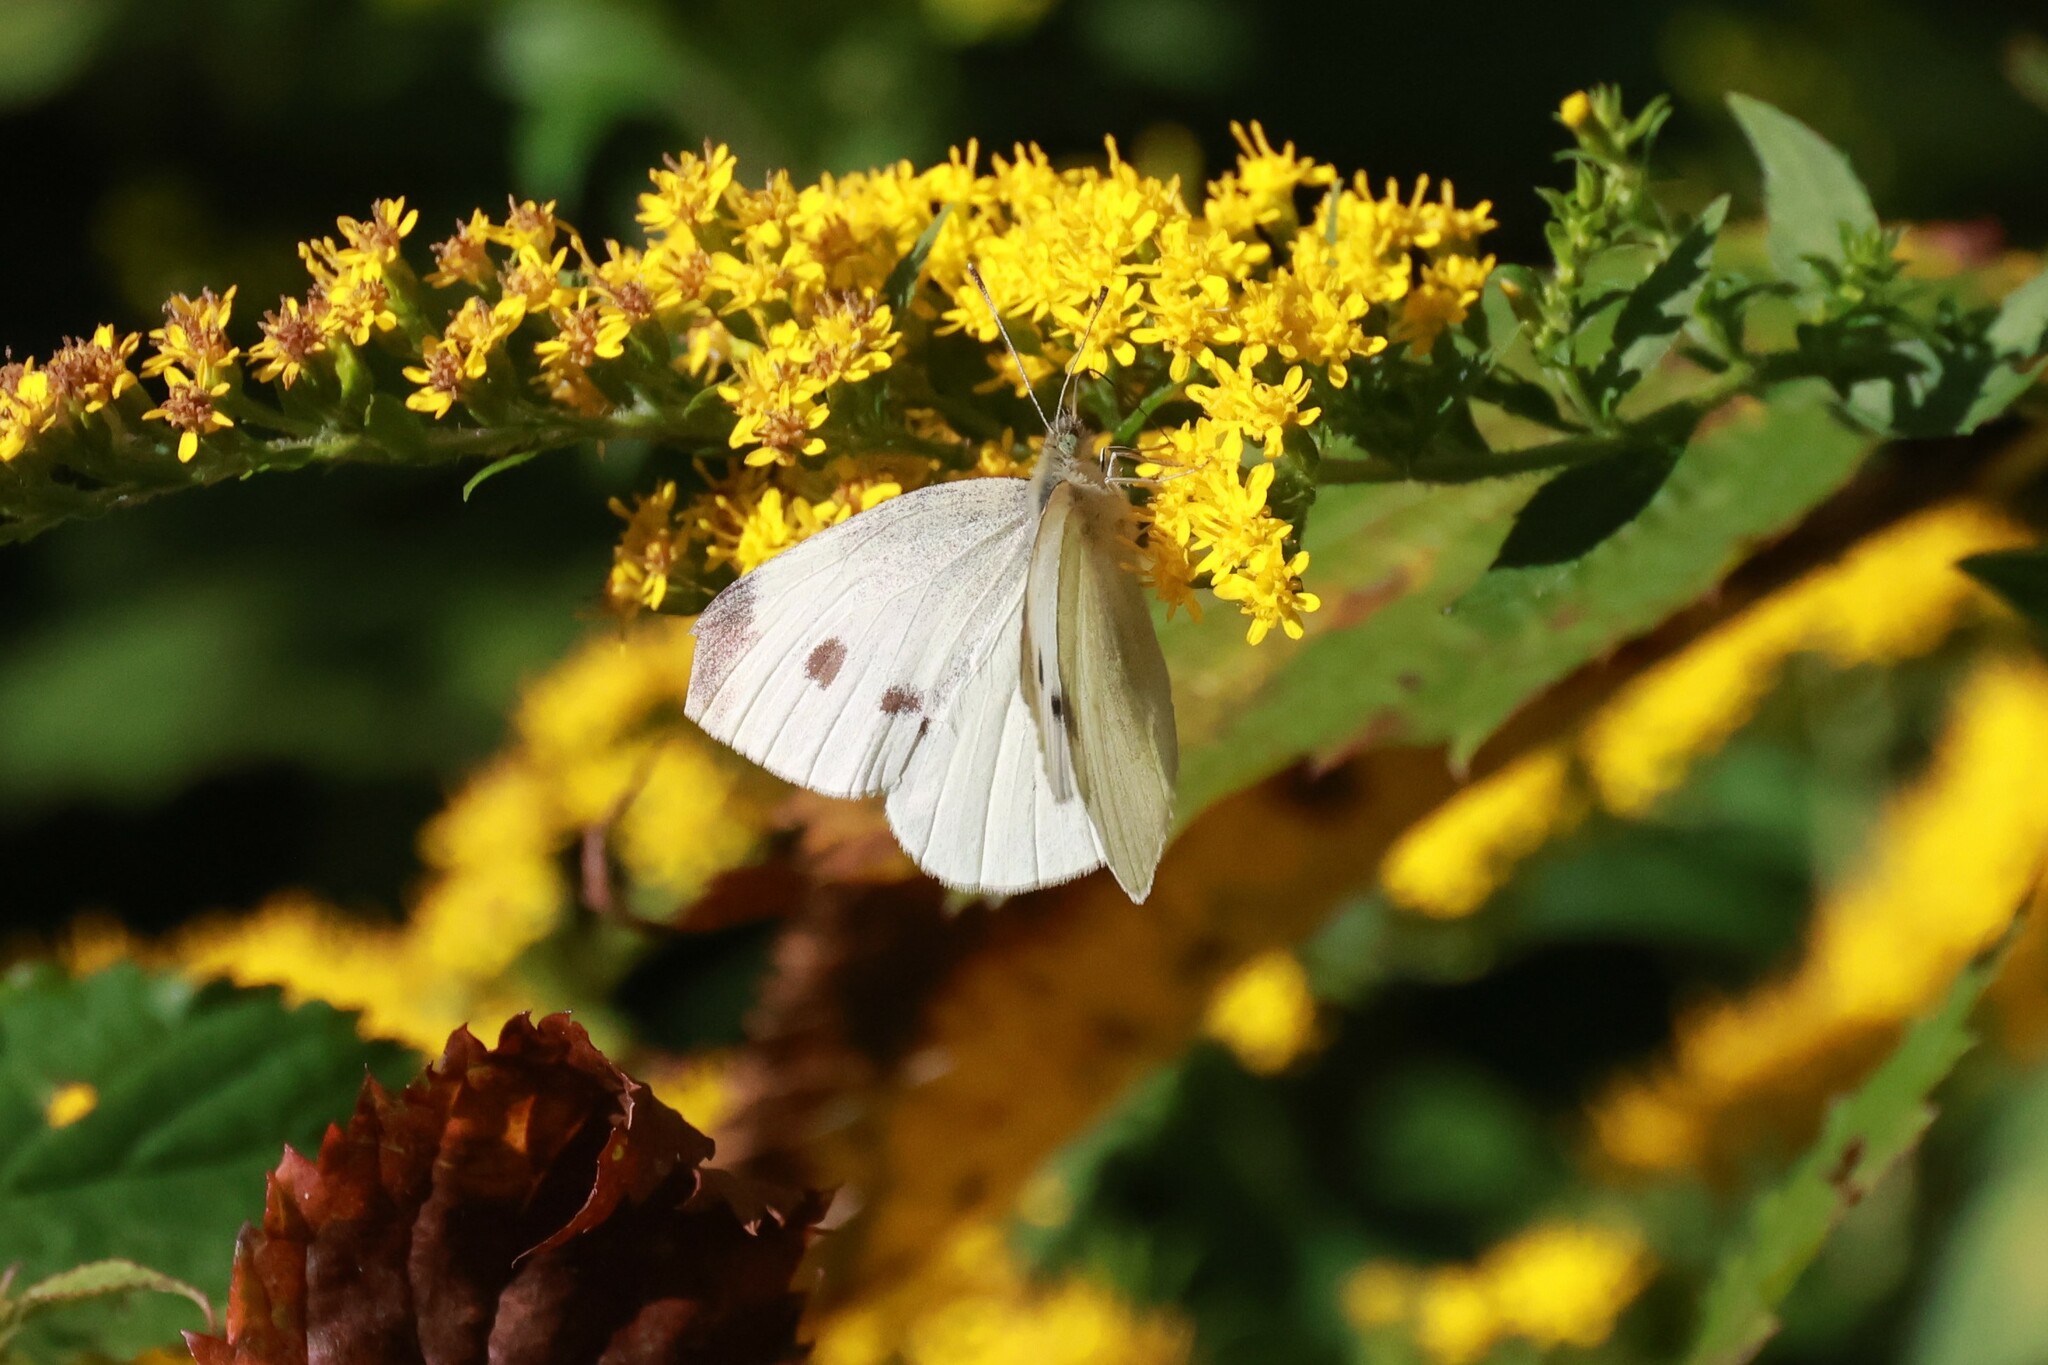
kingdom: Animalia
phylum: Arthropoda
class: Insecta
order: Lepidoptera
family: Pieridae
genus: Pieris
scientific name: Pieris rapae
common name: Small white
